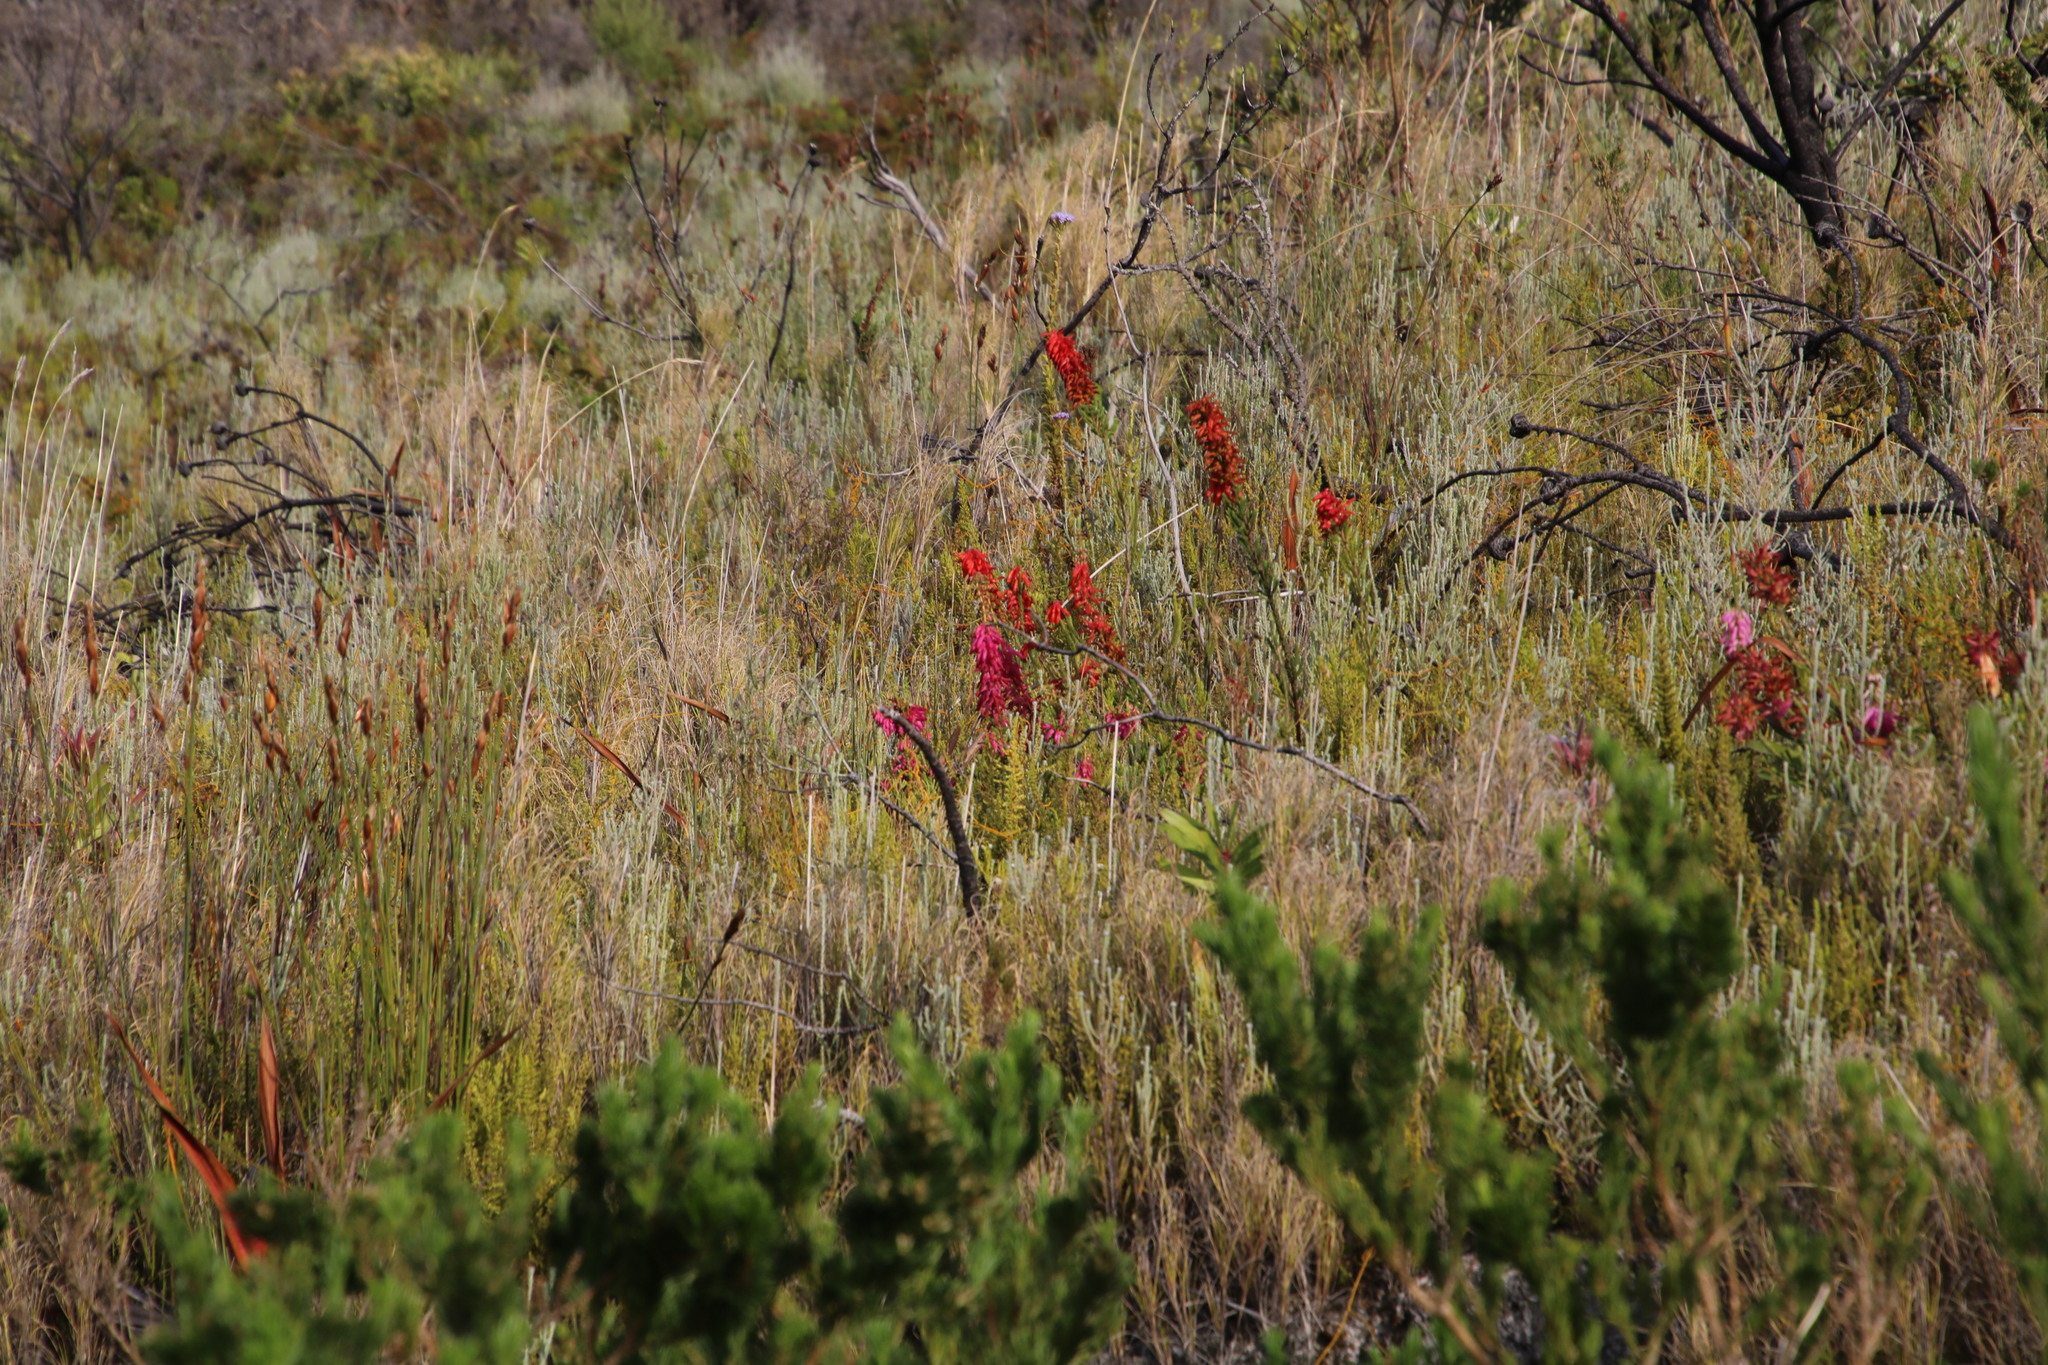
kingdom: Plantae
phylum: Tracheophyta
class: Magnoliopsida
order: Ericales
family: Ericaceae
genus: Erica
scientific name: Erica mammosa
